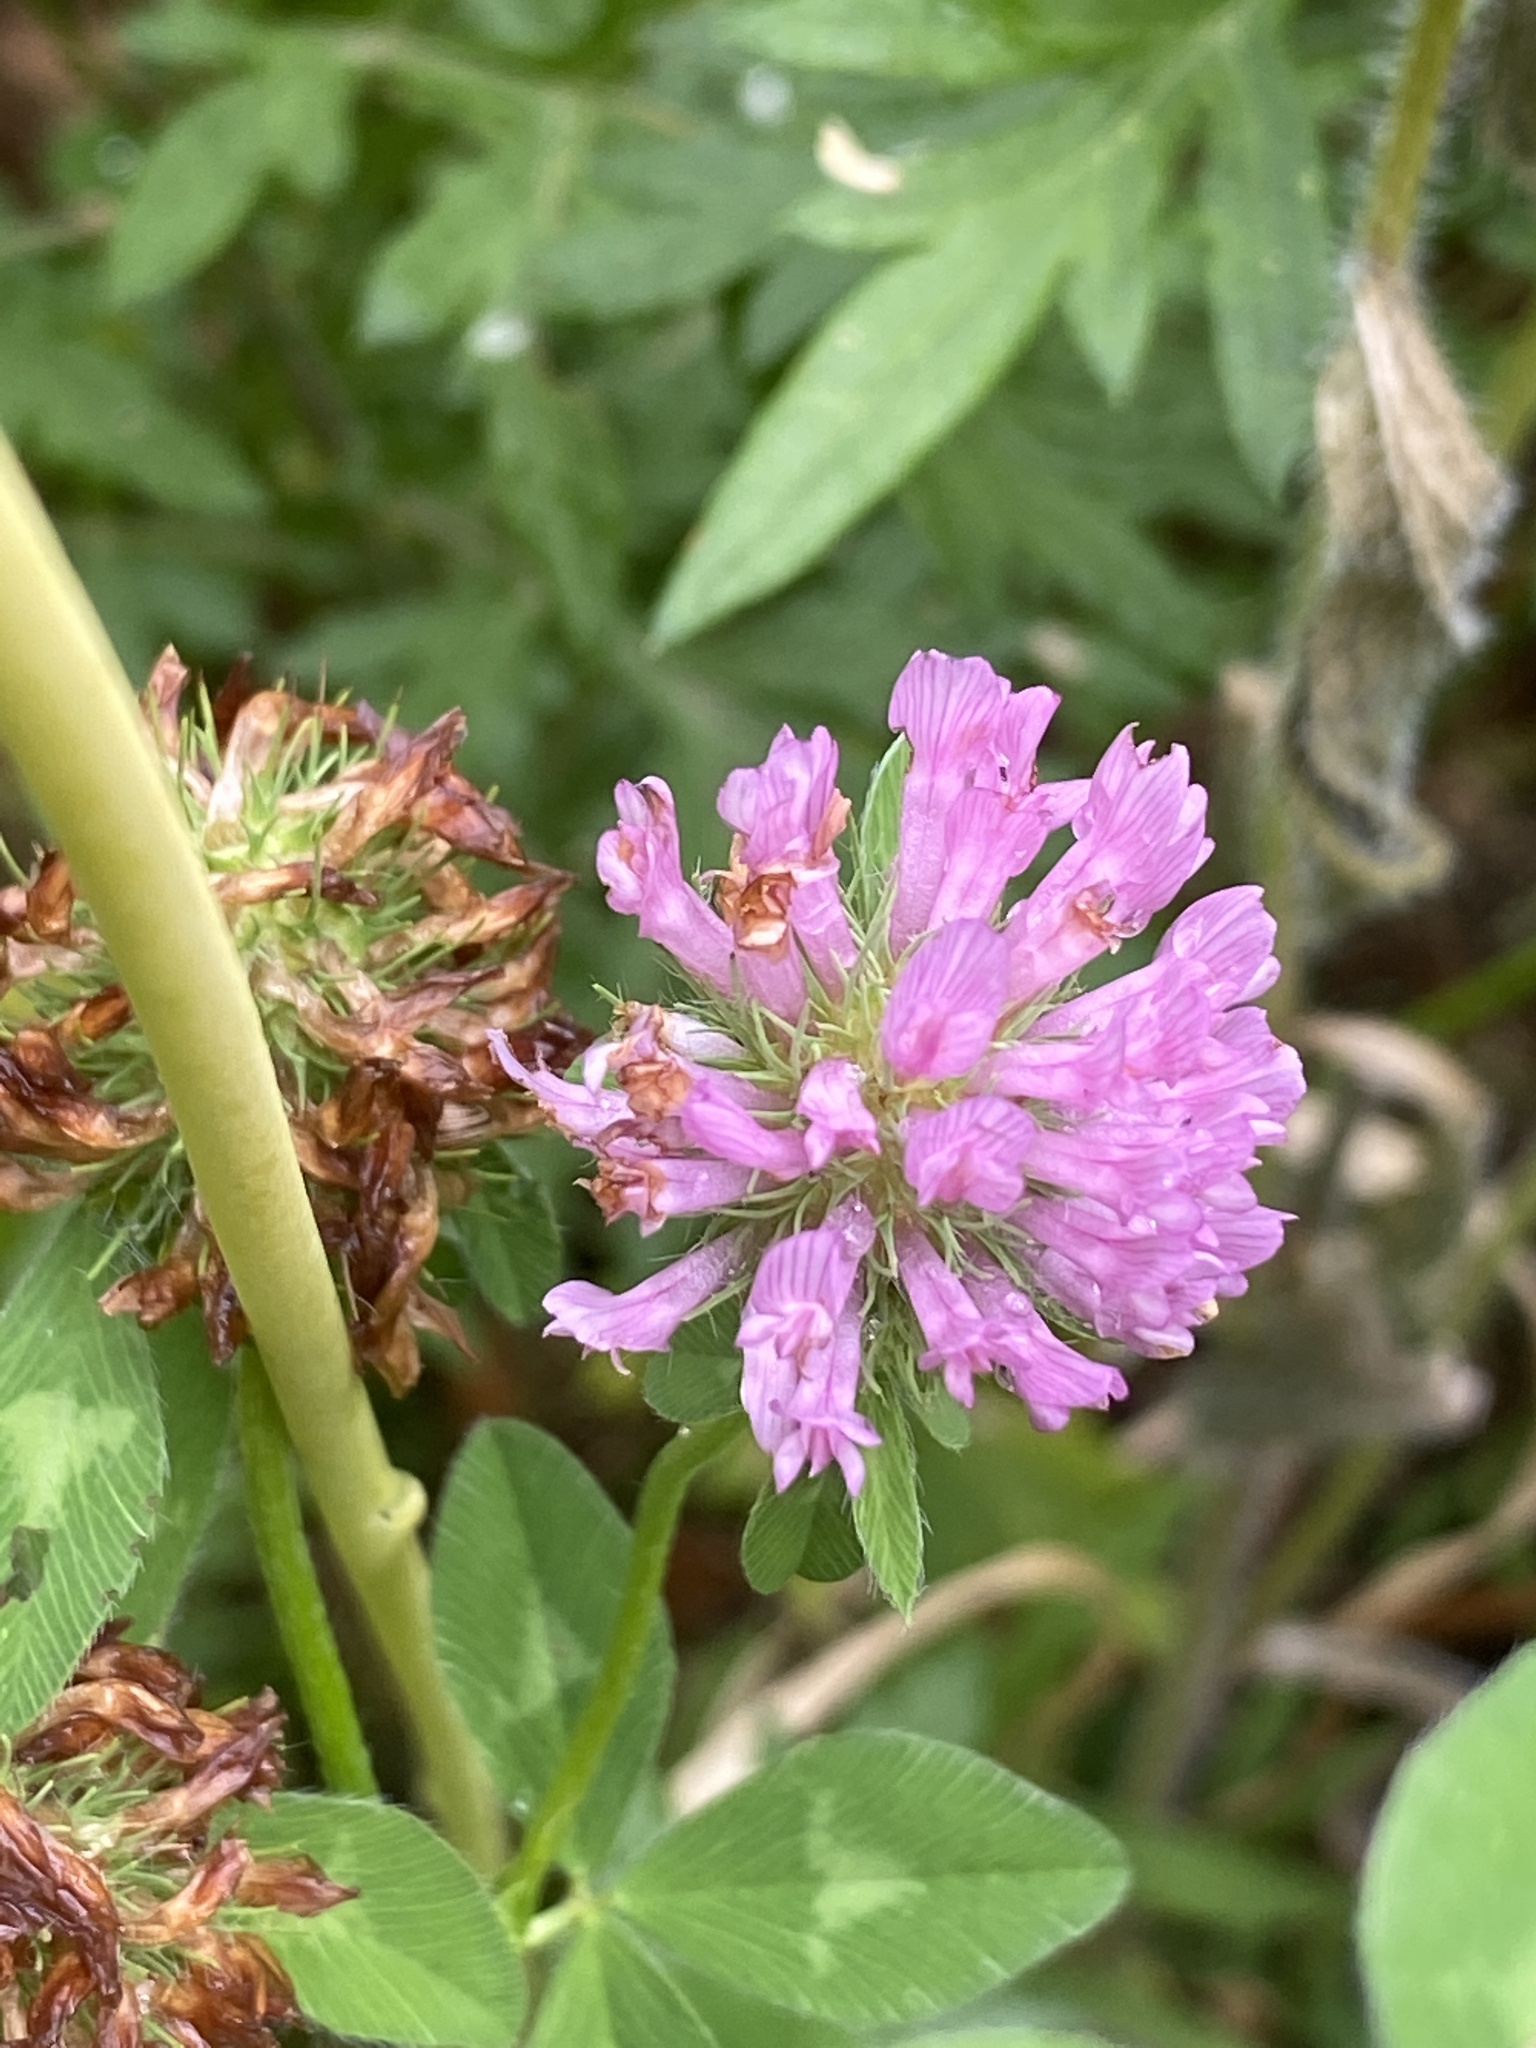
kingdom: Plantae
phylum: Tracheophyta
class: Magnoliopsida
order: Fabales
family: Fabaceae
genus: Trifolium
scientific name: Trifolium pratense
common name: Red clover
